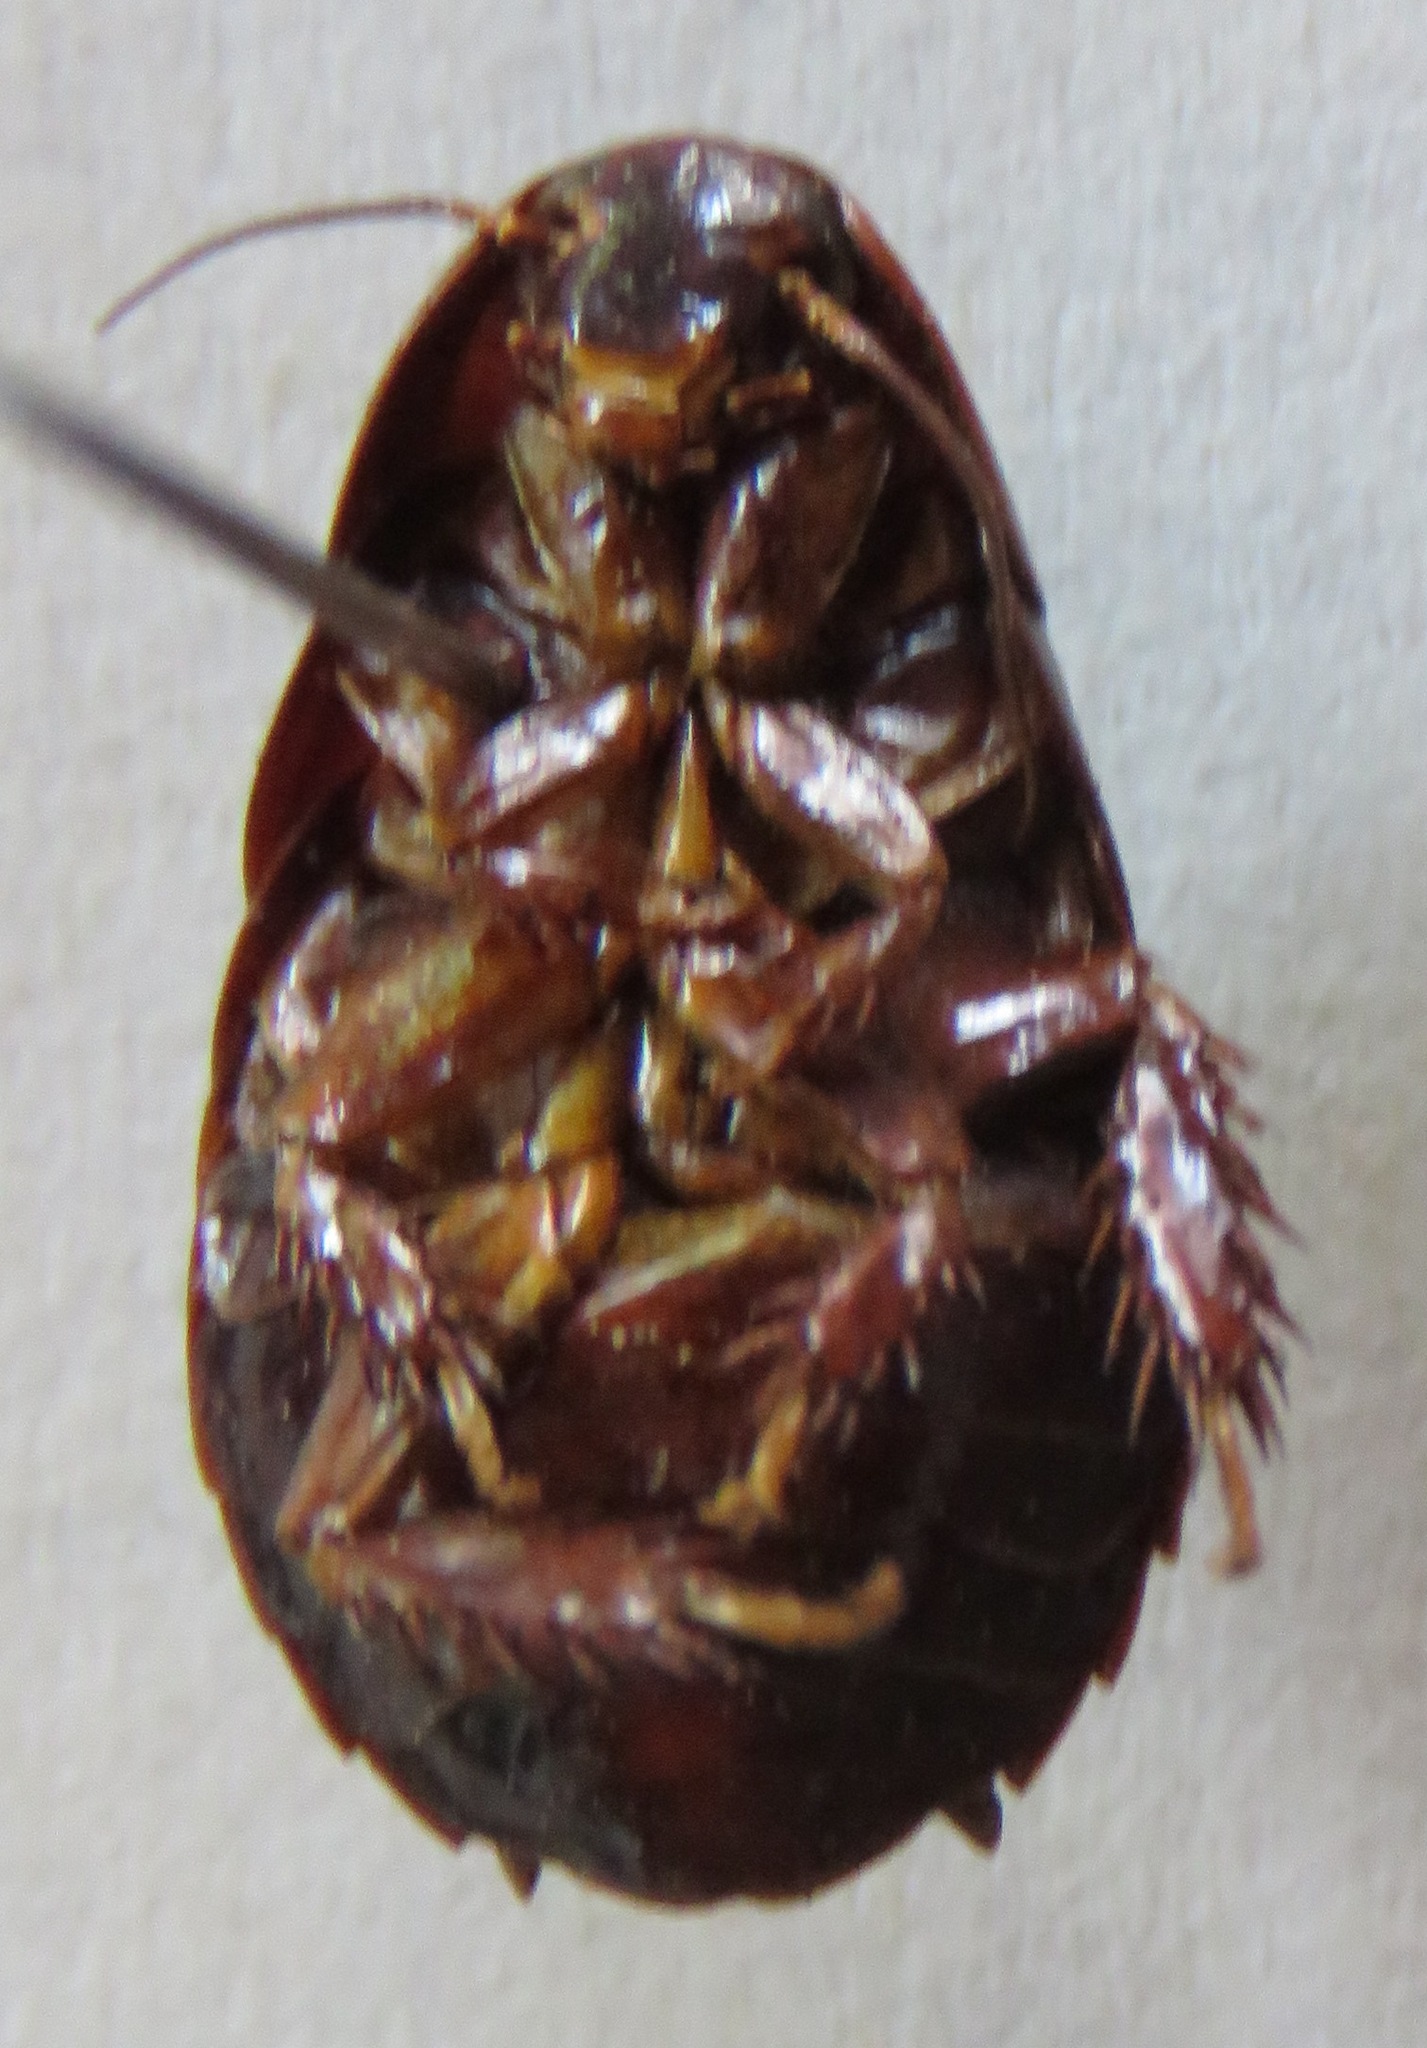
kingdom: Animalia
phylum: Arthropoda
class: Insecta
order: Blattodea
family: Blaberidae
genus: Pycnoscelus
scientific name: Pycnoscelus surinamensis
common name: Surinam cockroach
